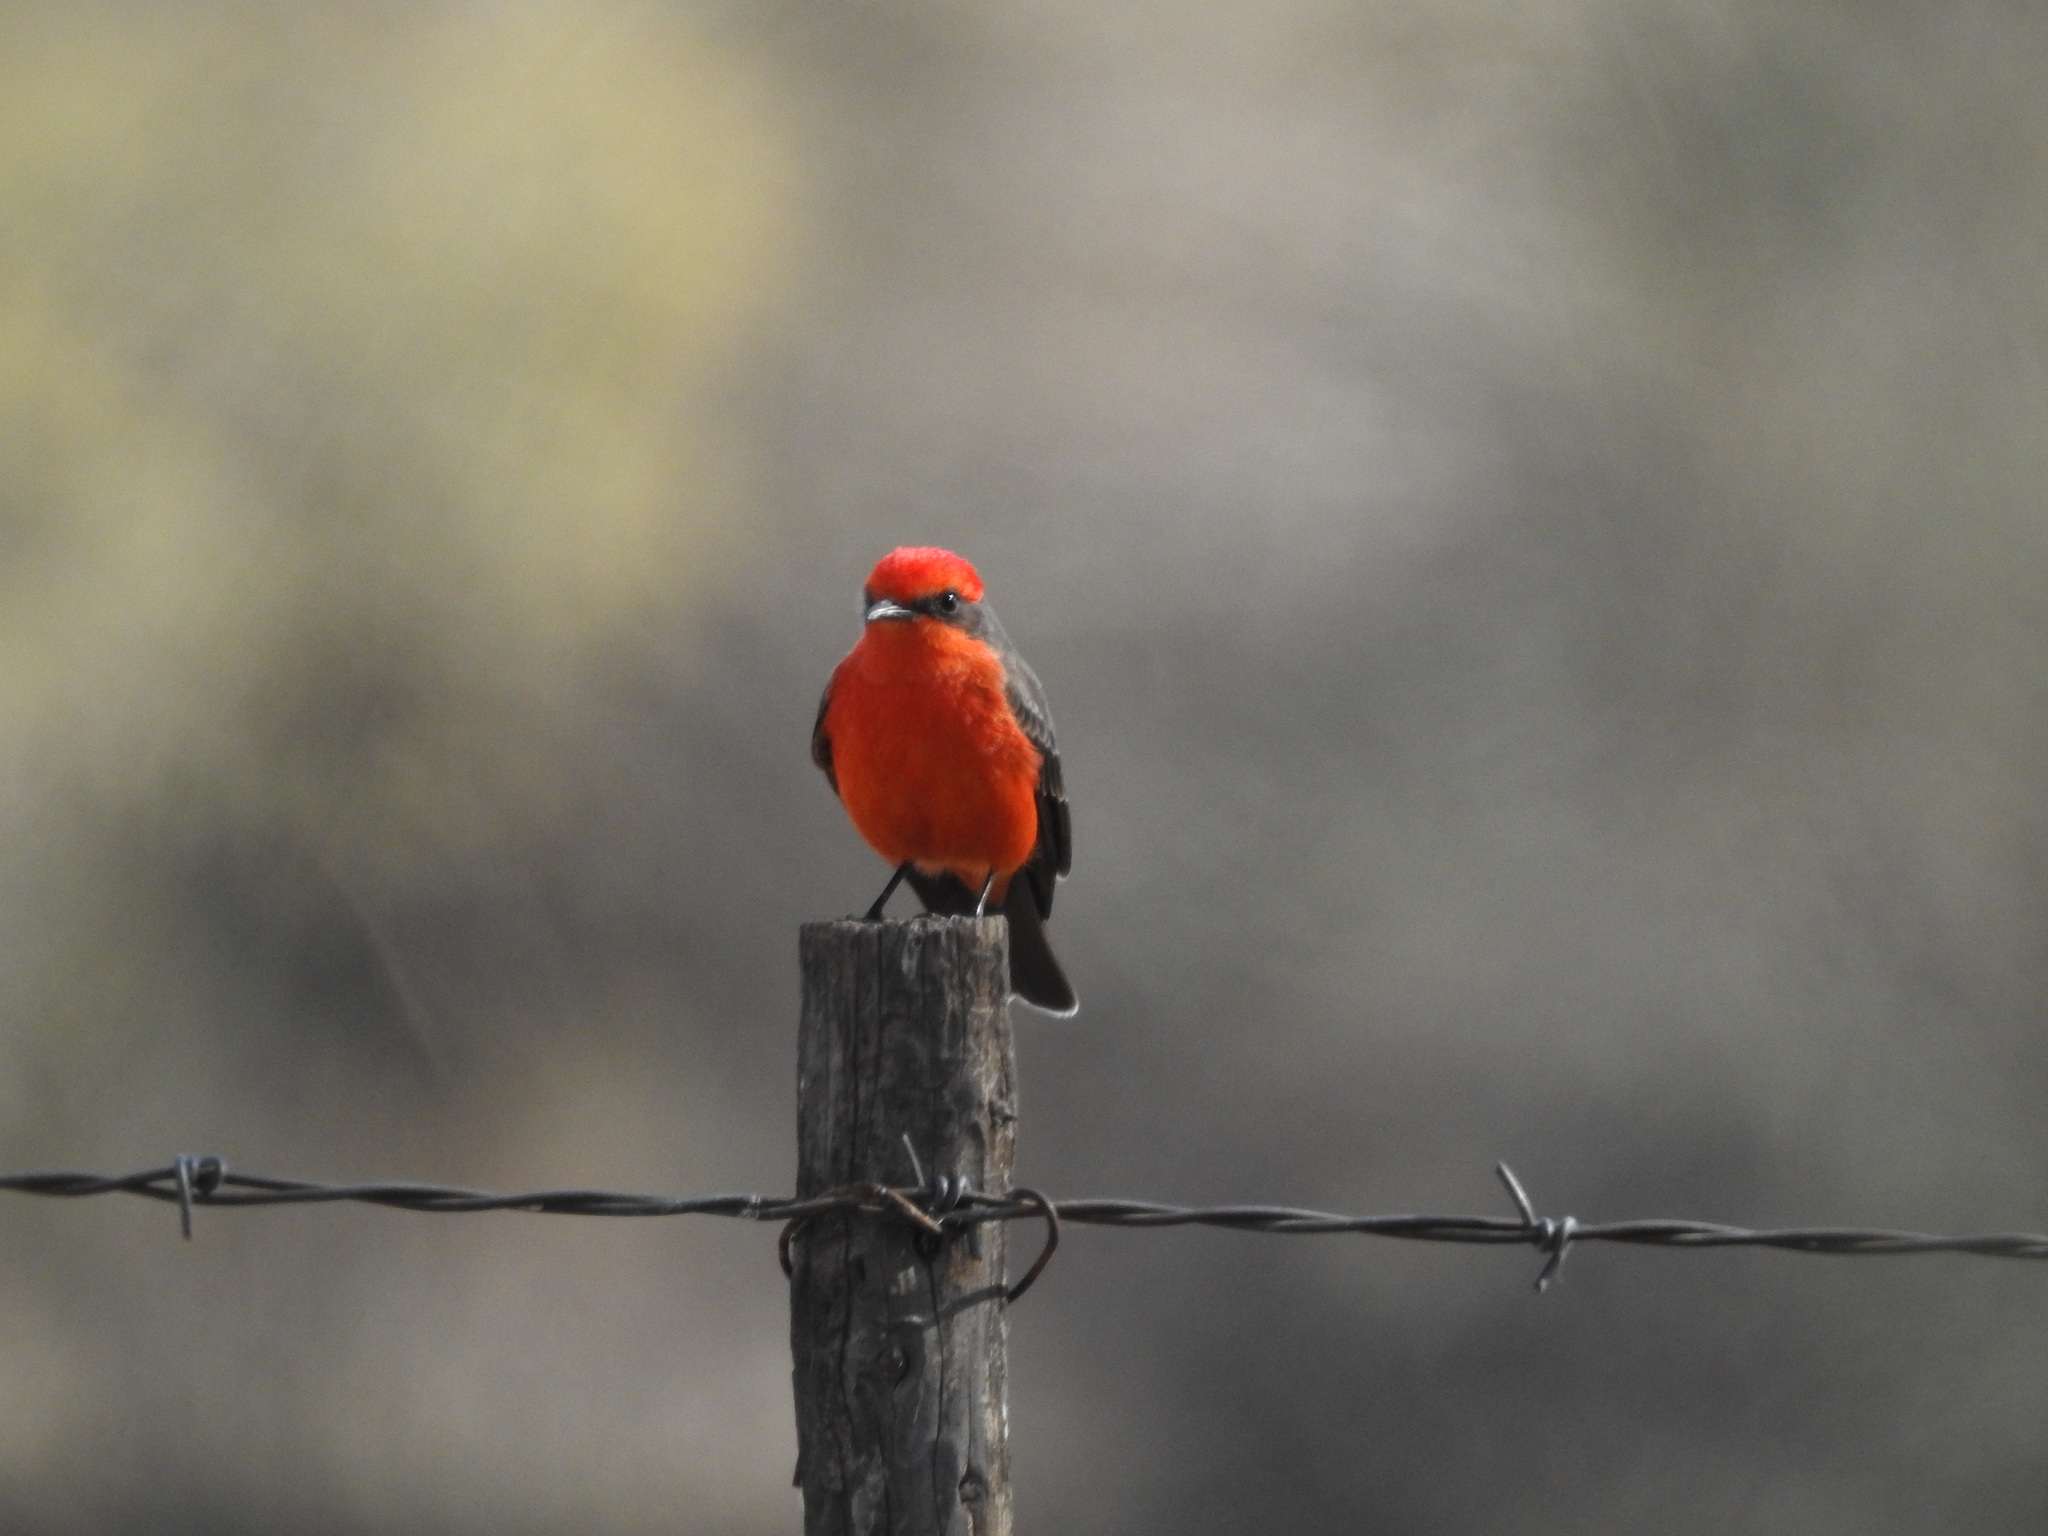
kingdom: Animalia
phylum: Chordata
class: Aves
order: Passeriformes
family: Tyrannidae
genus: Pyrocephalus
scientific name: Pyrocephalus rubinus
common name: Vermilion flycatcher
